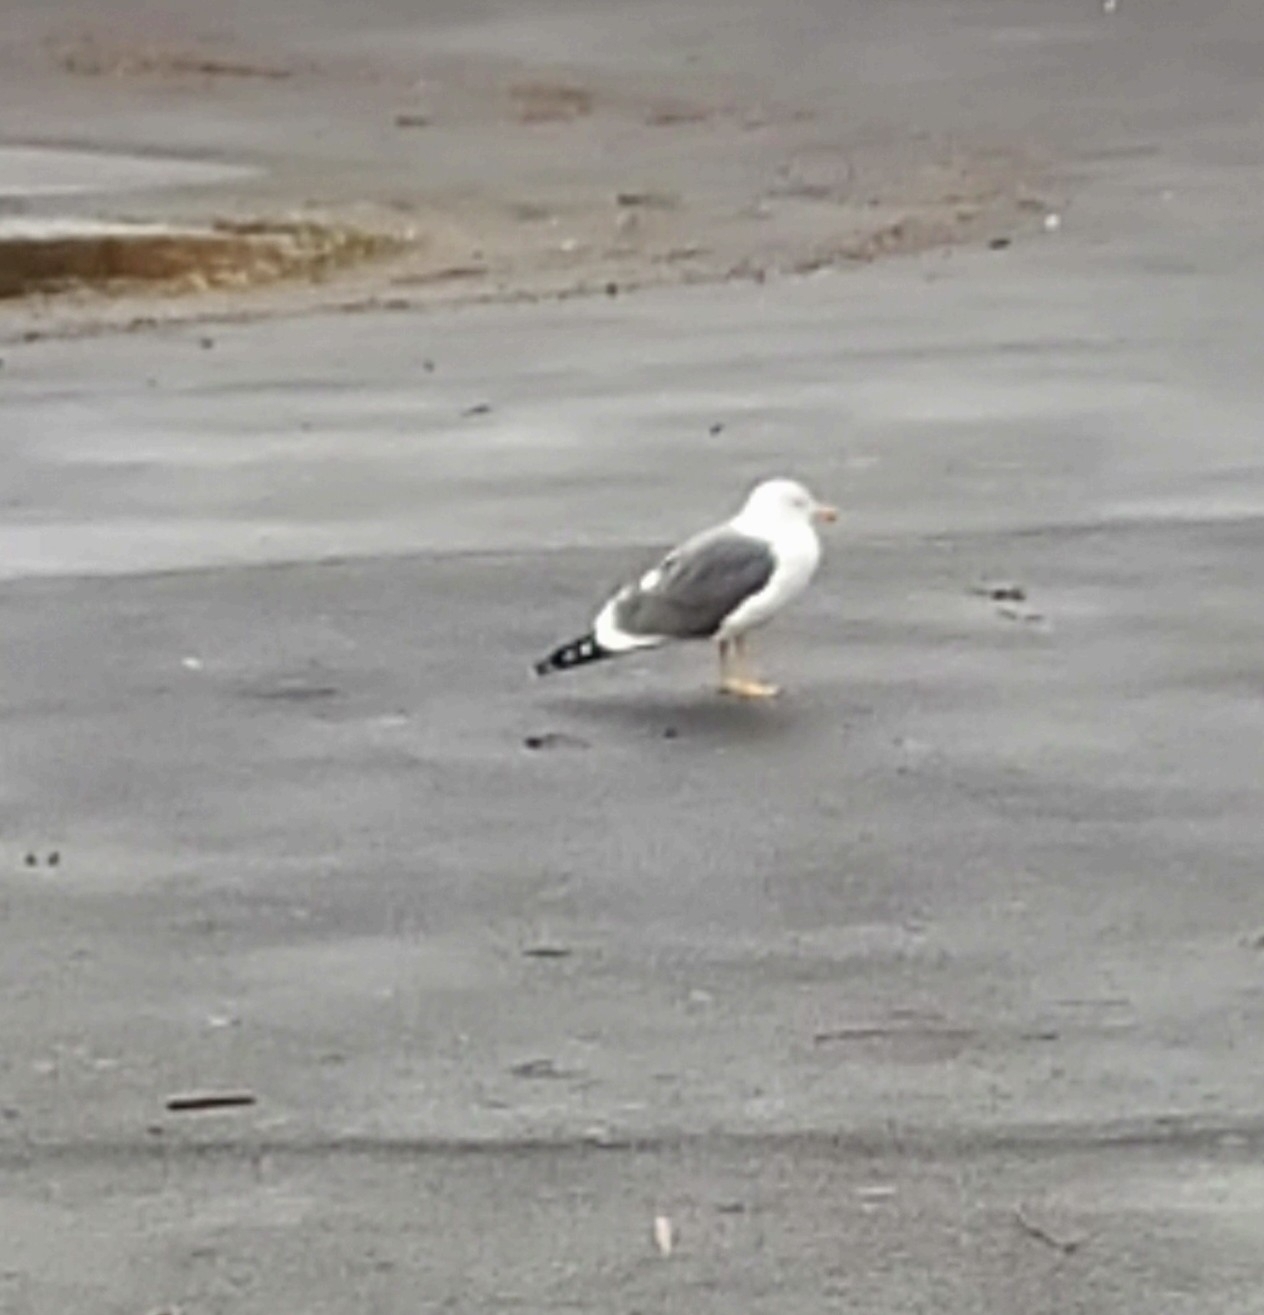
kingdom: Animalia
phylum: Chordata
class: Aves
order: Charadriiformes
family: Laridae
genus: Larus
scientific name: Larus fuscus
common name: Lesser black-backed gull
